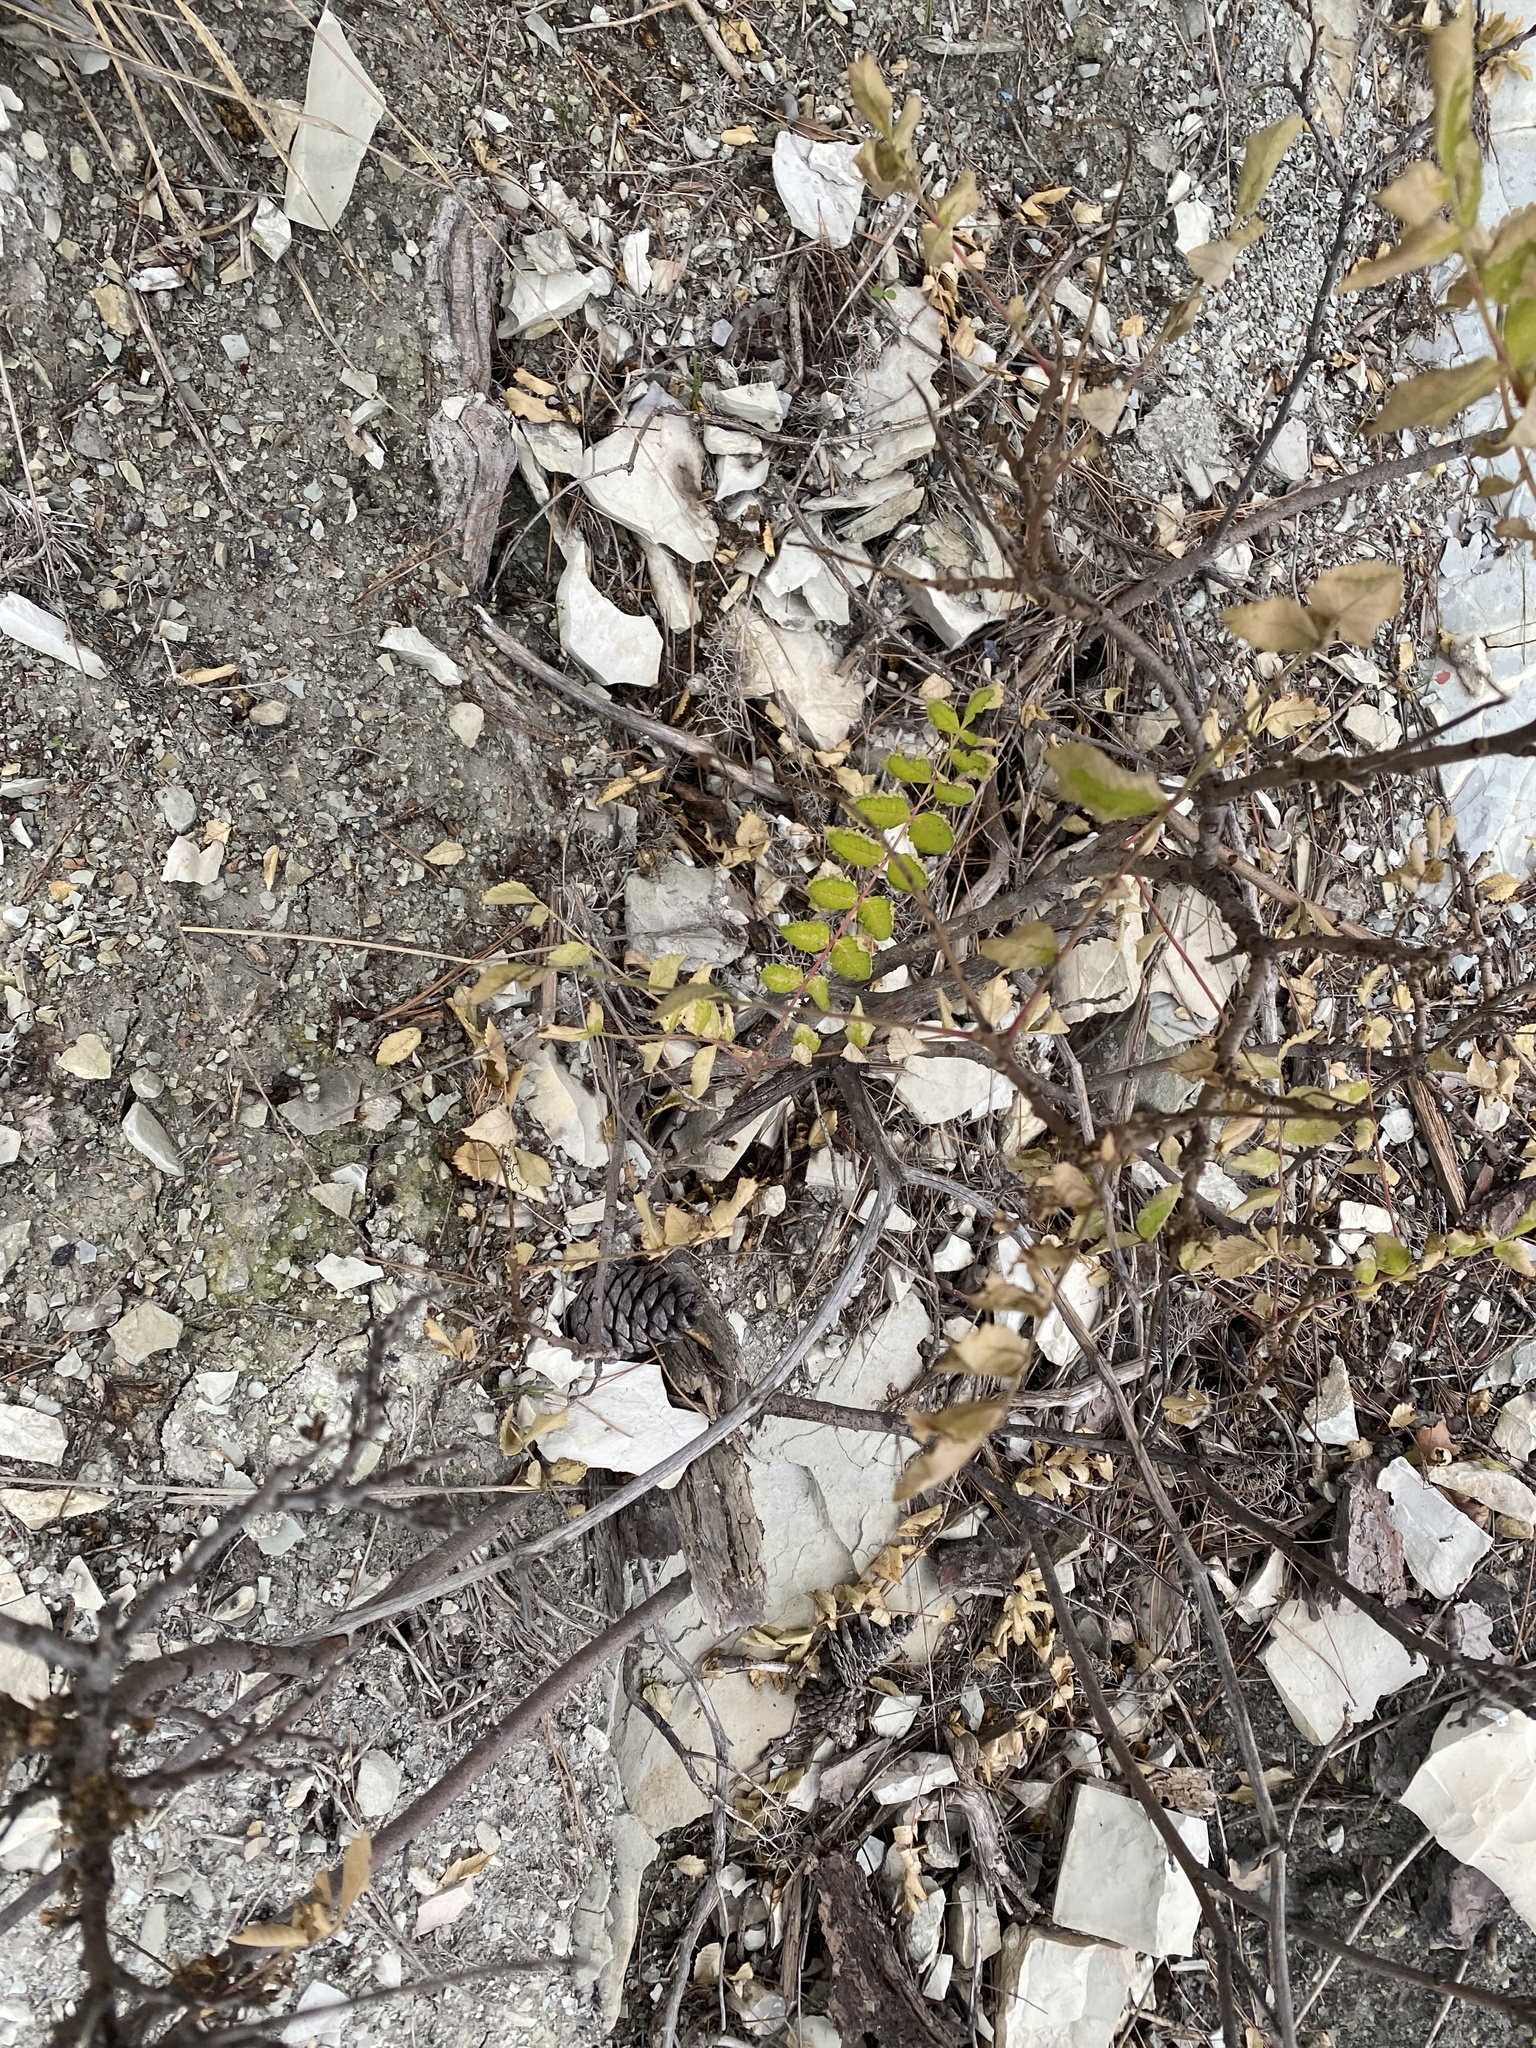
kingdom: Plantae
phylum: Tracheophyta
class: Magnoliopsida
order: Sapindales
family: Anacardiaceae
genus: Rhus
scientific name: Rhus coriaria
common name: Tanner's sumach
